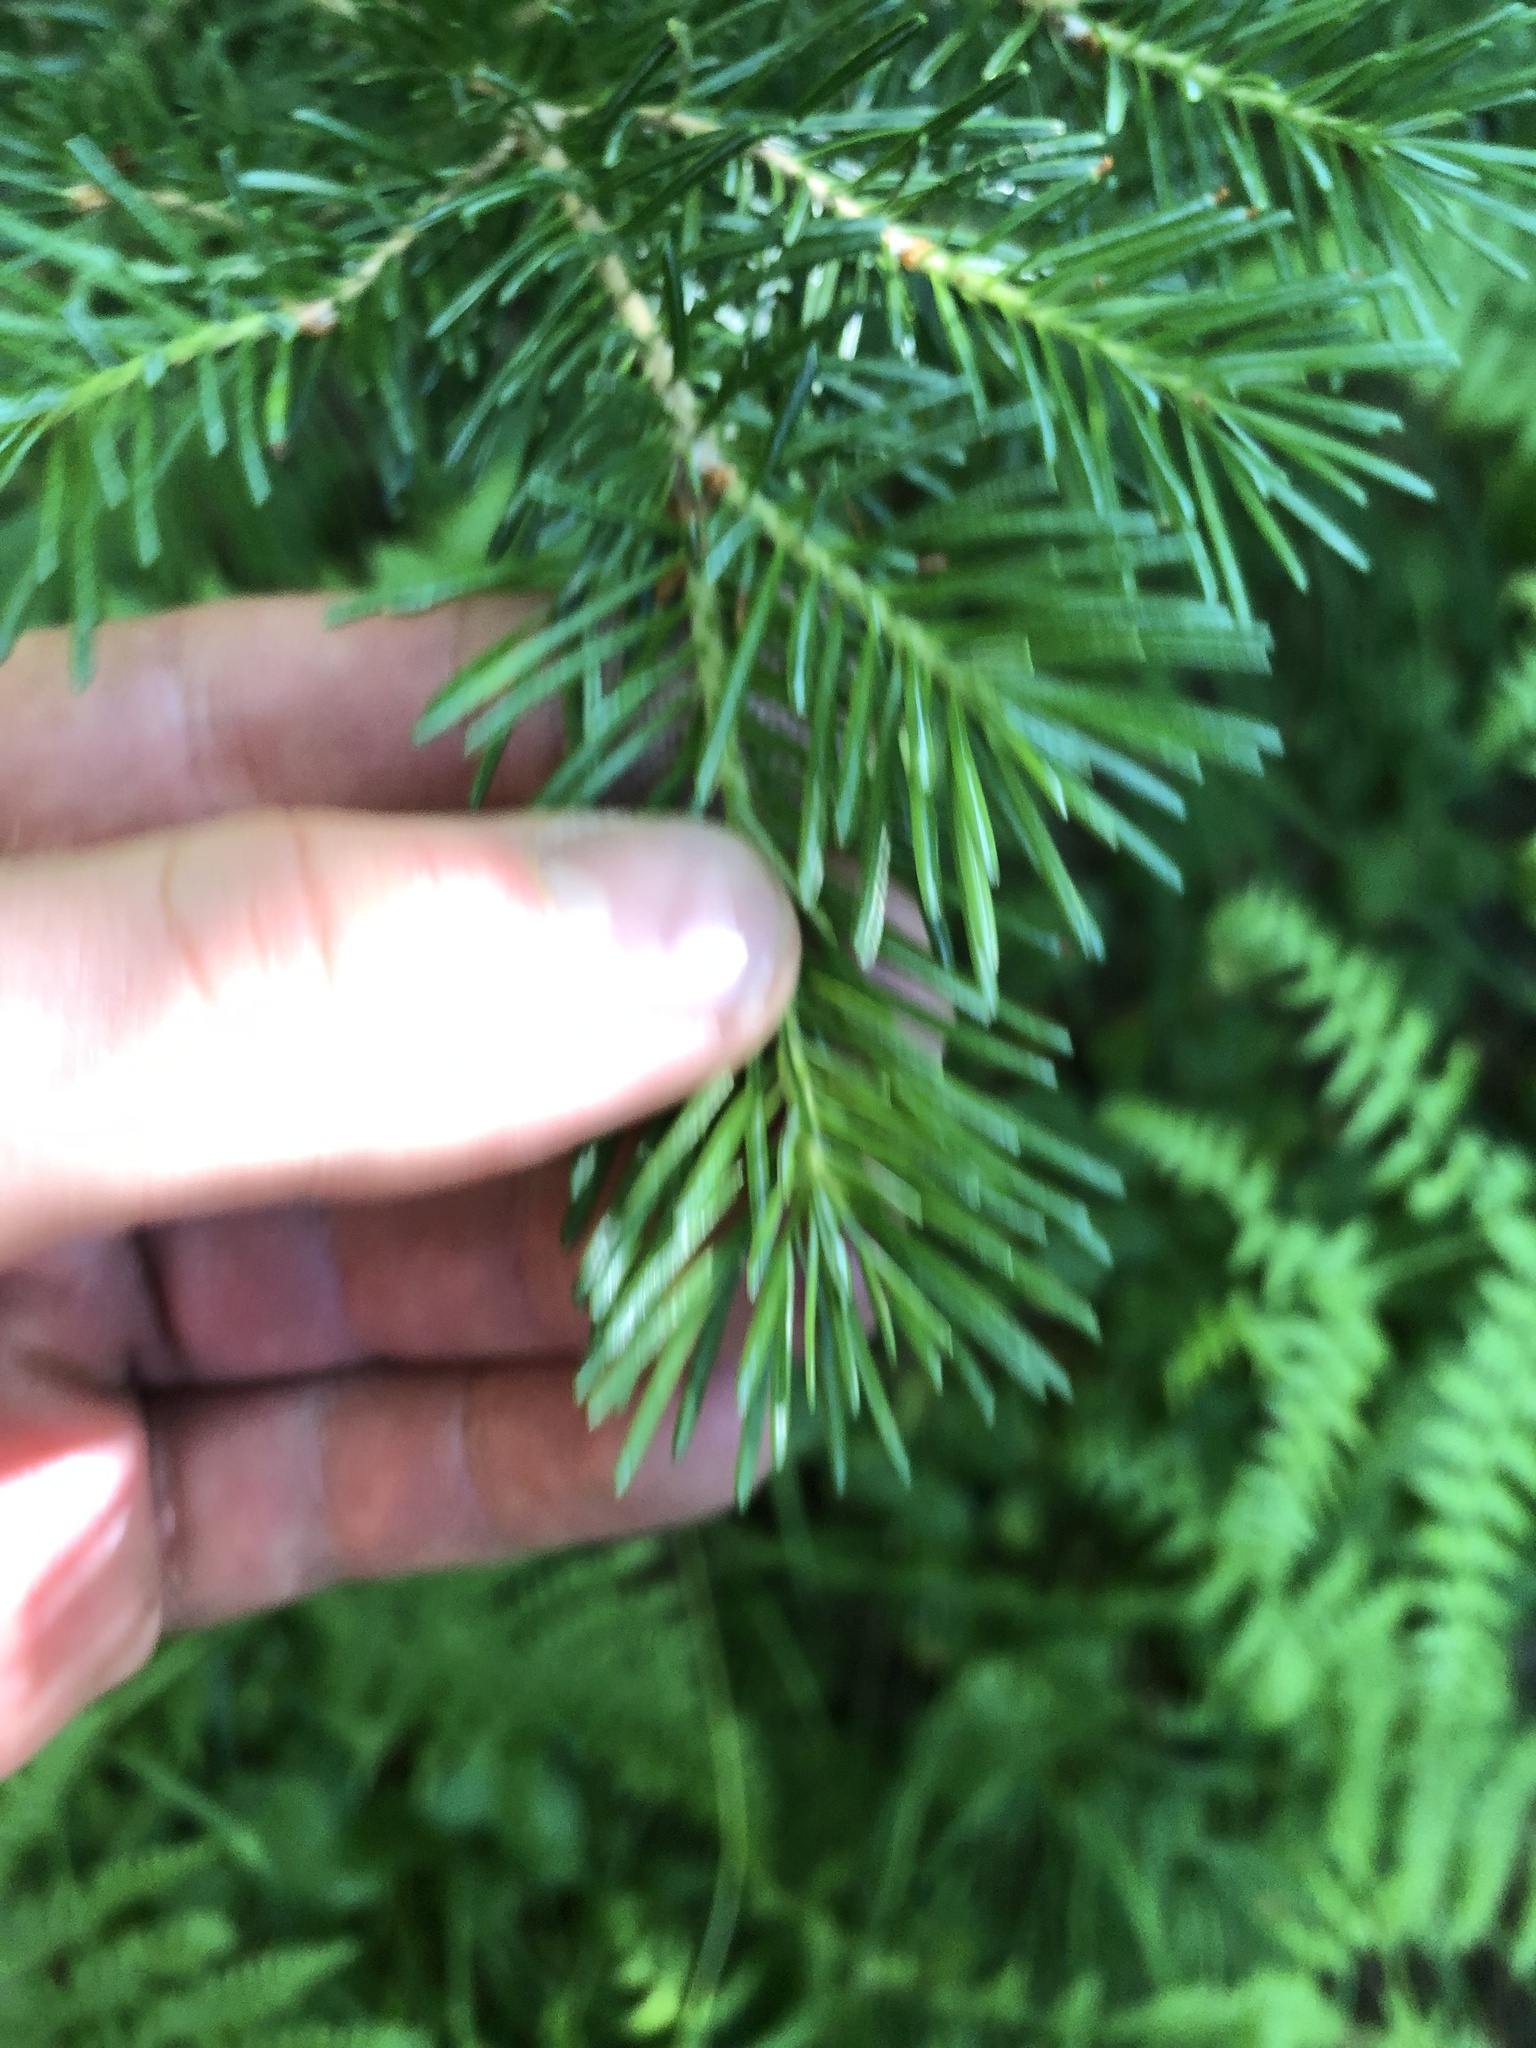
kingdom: Plantae
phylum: Tracheophyta
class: Pinopsida
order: Pinales
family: Pinaceae
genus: Abies
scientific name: Abies lasiocarpa
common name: Subalpine fir
